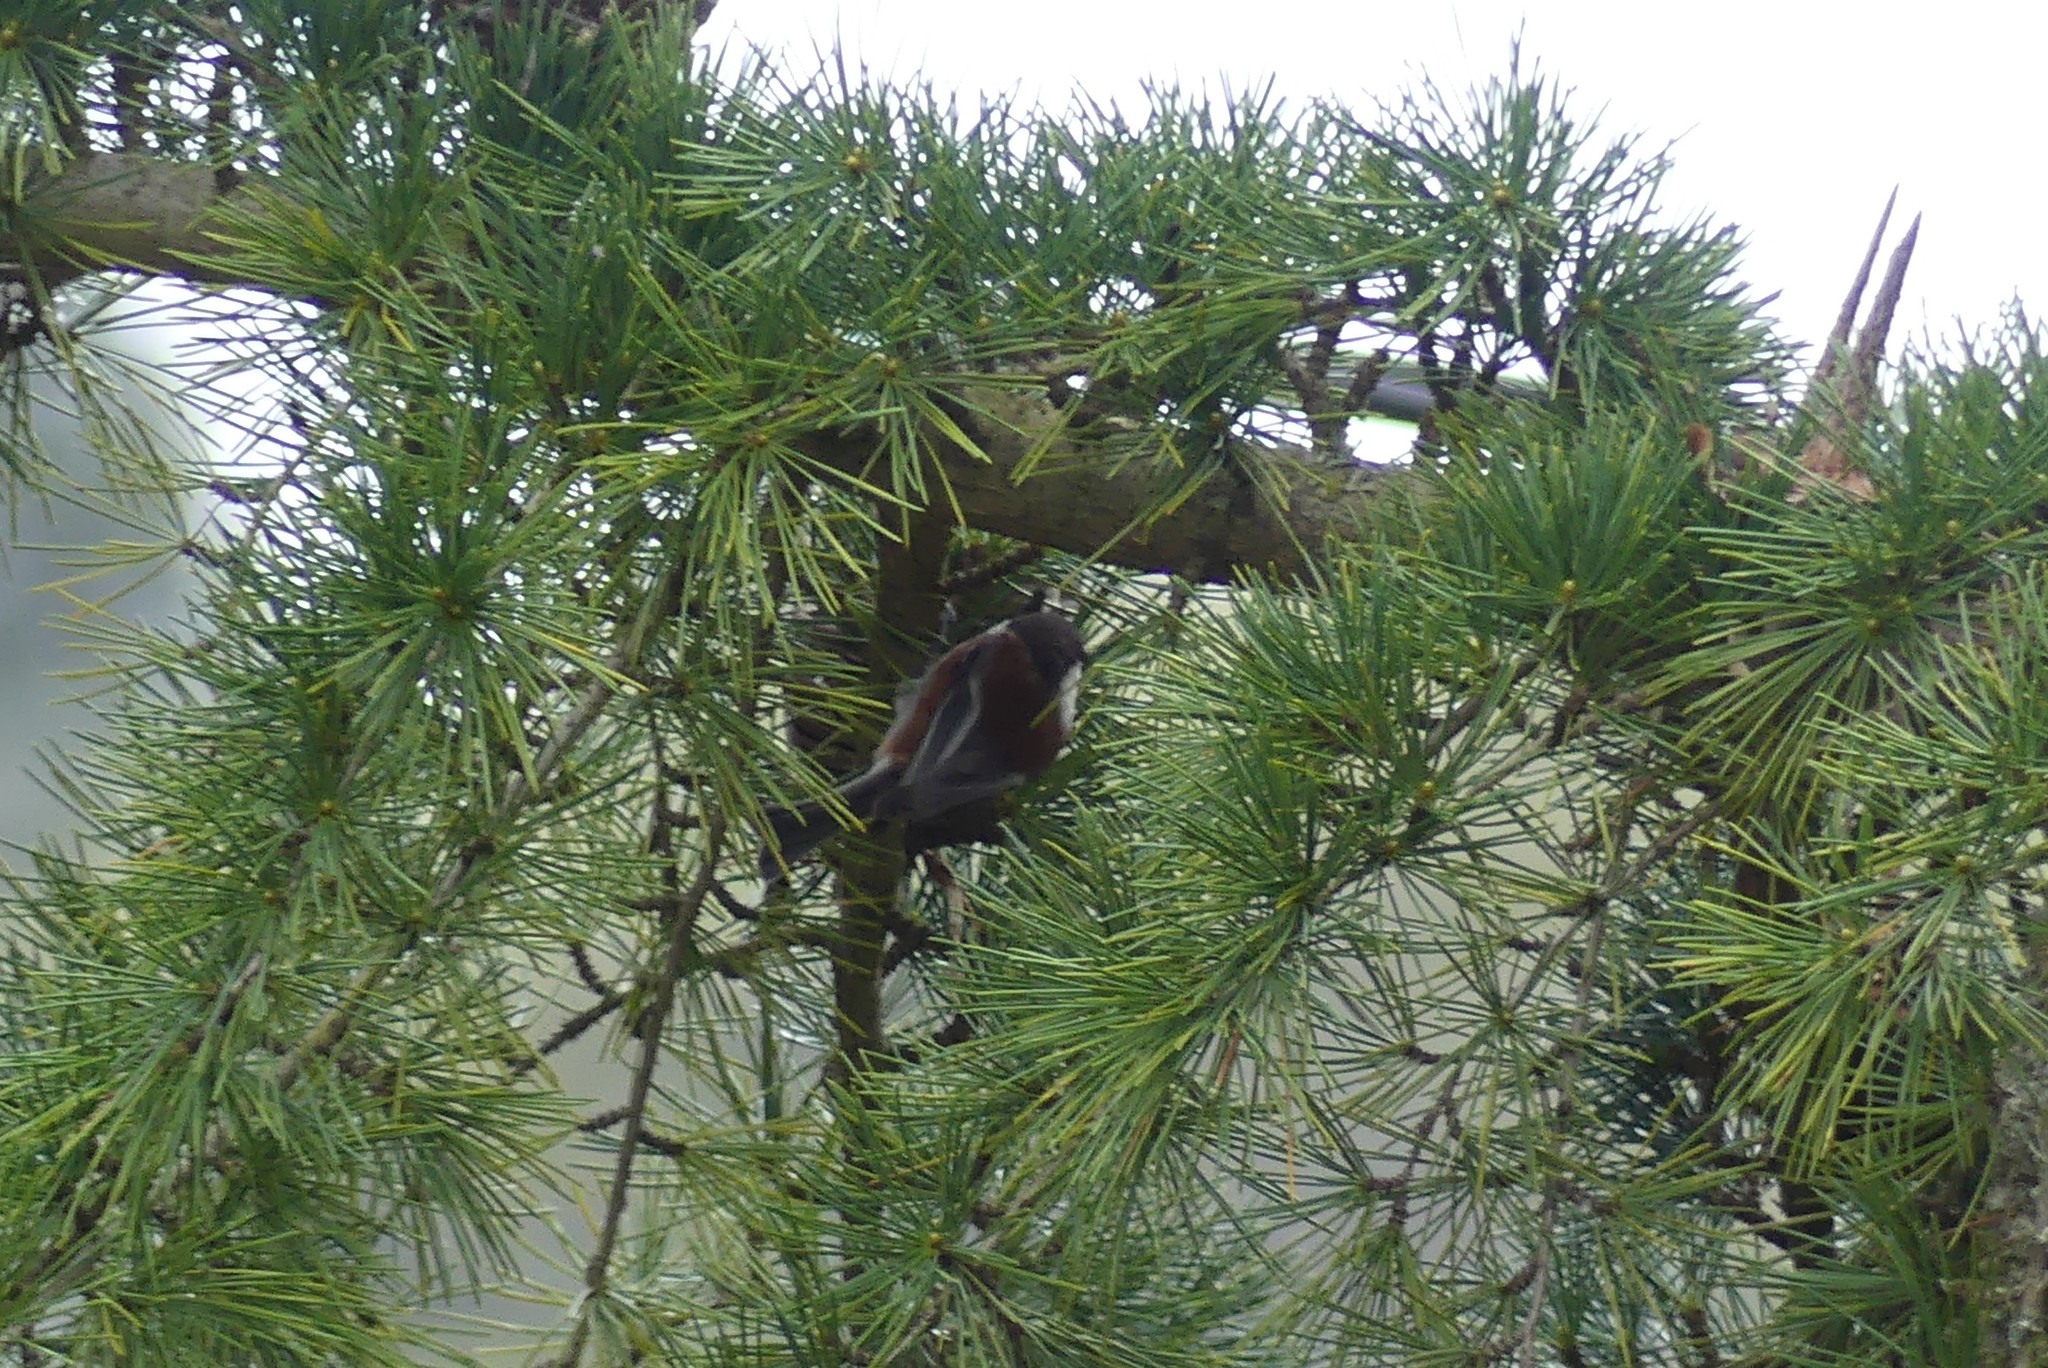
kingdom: Animalia
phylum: Chordata
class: Aves
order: Passeriformes
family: Paridae
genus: Poecile
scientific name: Poecile rufescens
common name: Chestnut-backed chickadee
